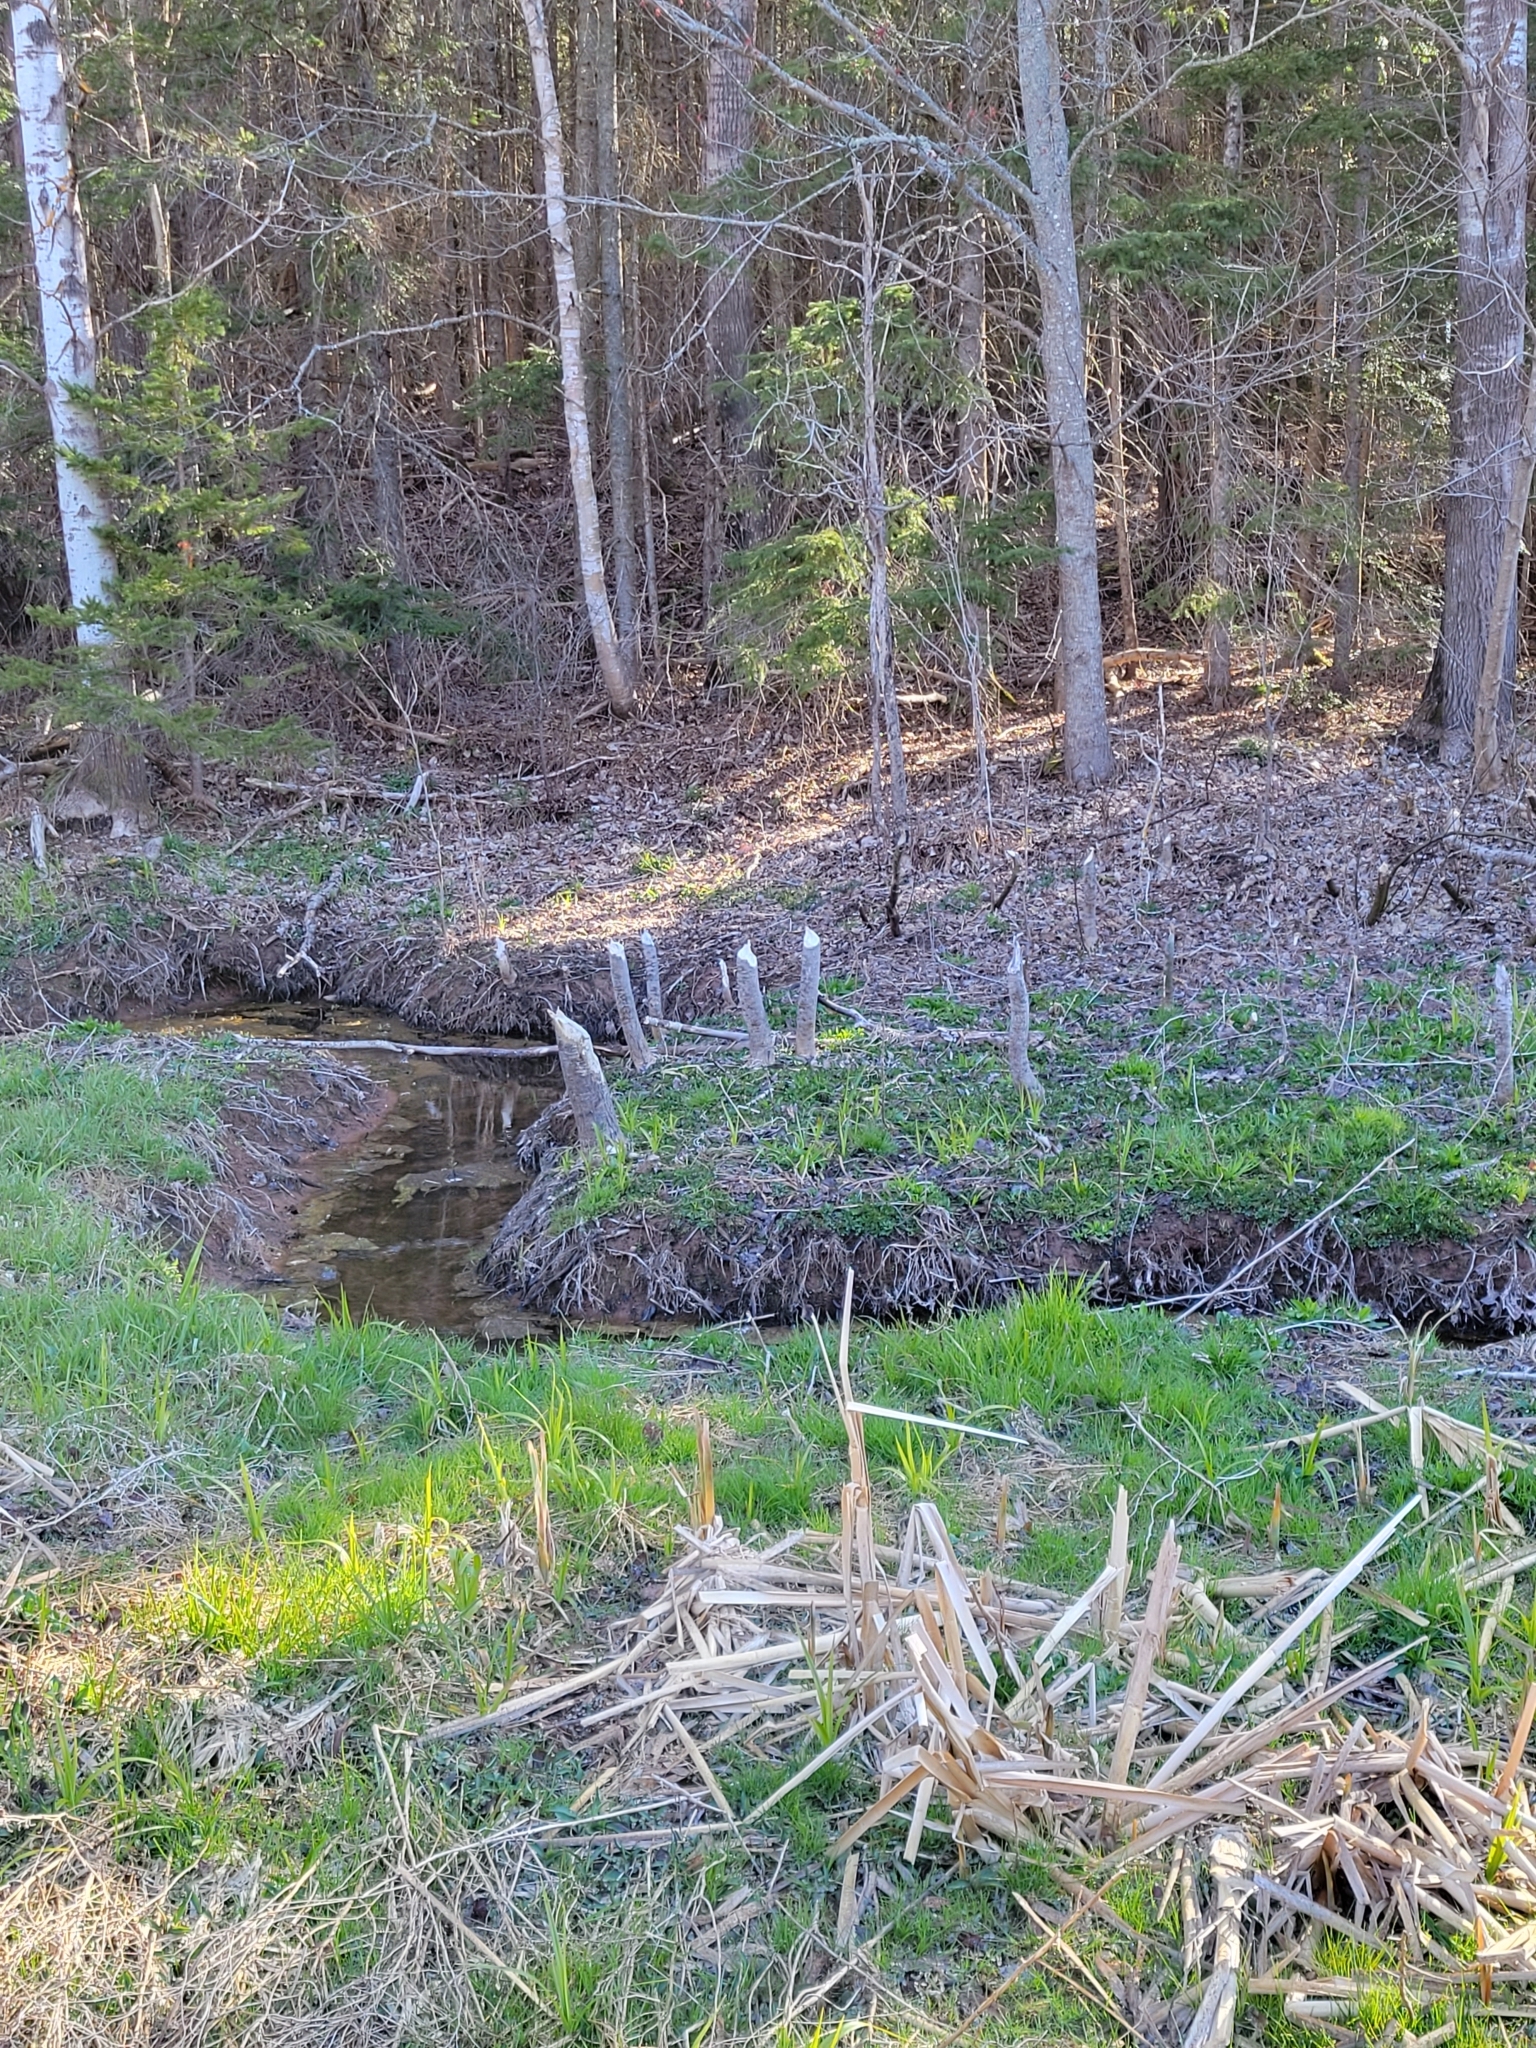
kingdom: Animalia
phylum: Chordata
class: Mammalia
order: Rodentia
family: Castoridae
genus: Castor
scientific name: Castor canadensis
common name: American beaver
